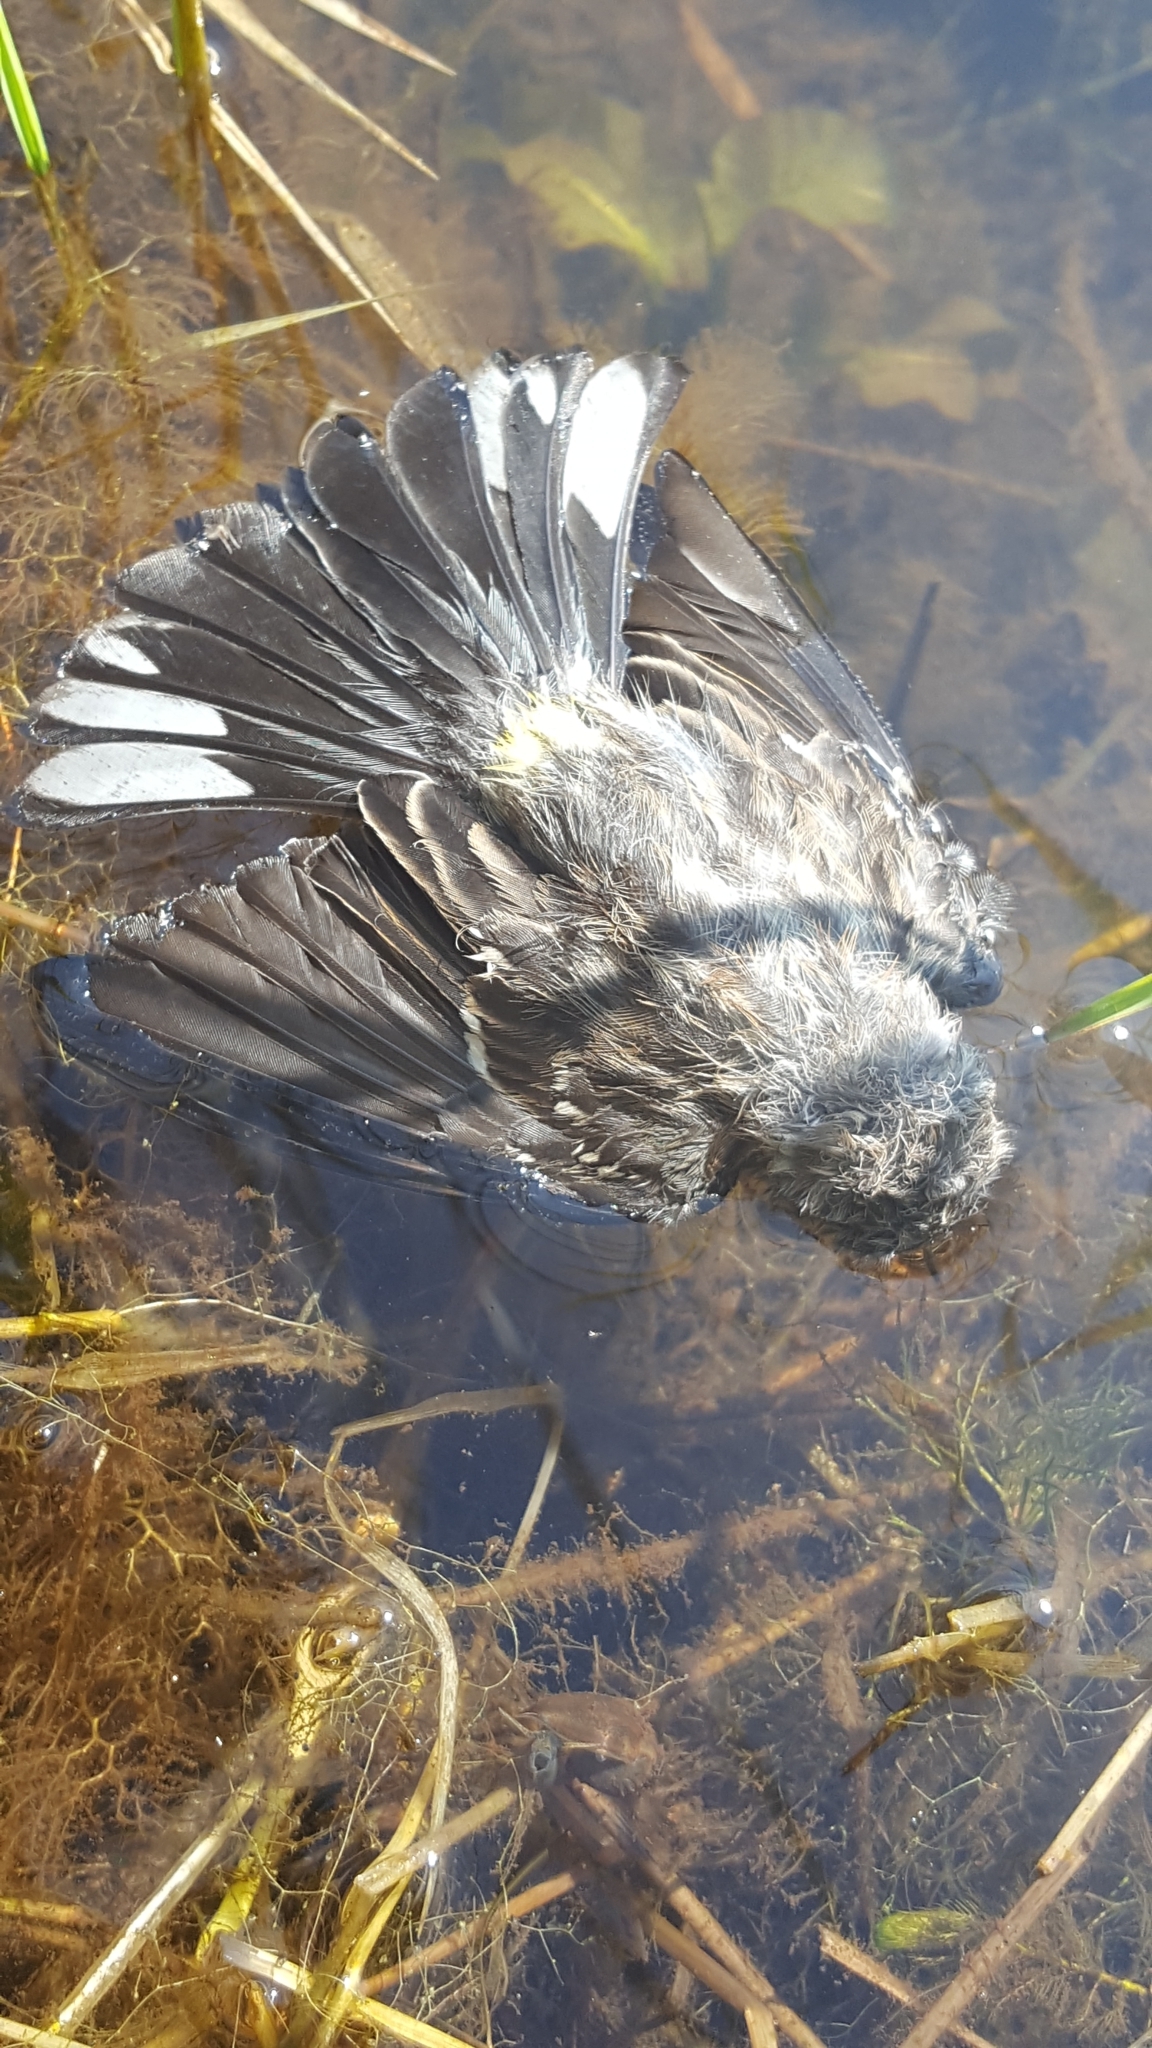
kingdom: Animalia
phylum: Chordata
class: Aves
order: Passeriformes
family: Parulidae
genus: Setophaga
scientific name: Setophaga coronata
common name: Myrtle warbler
